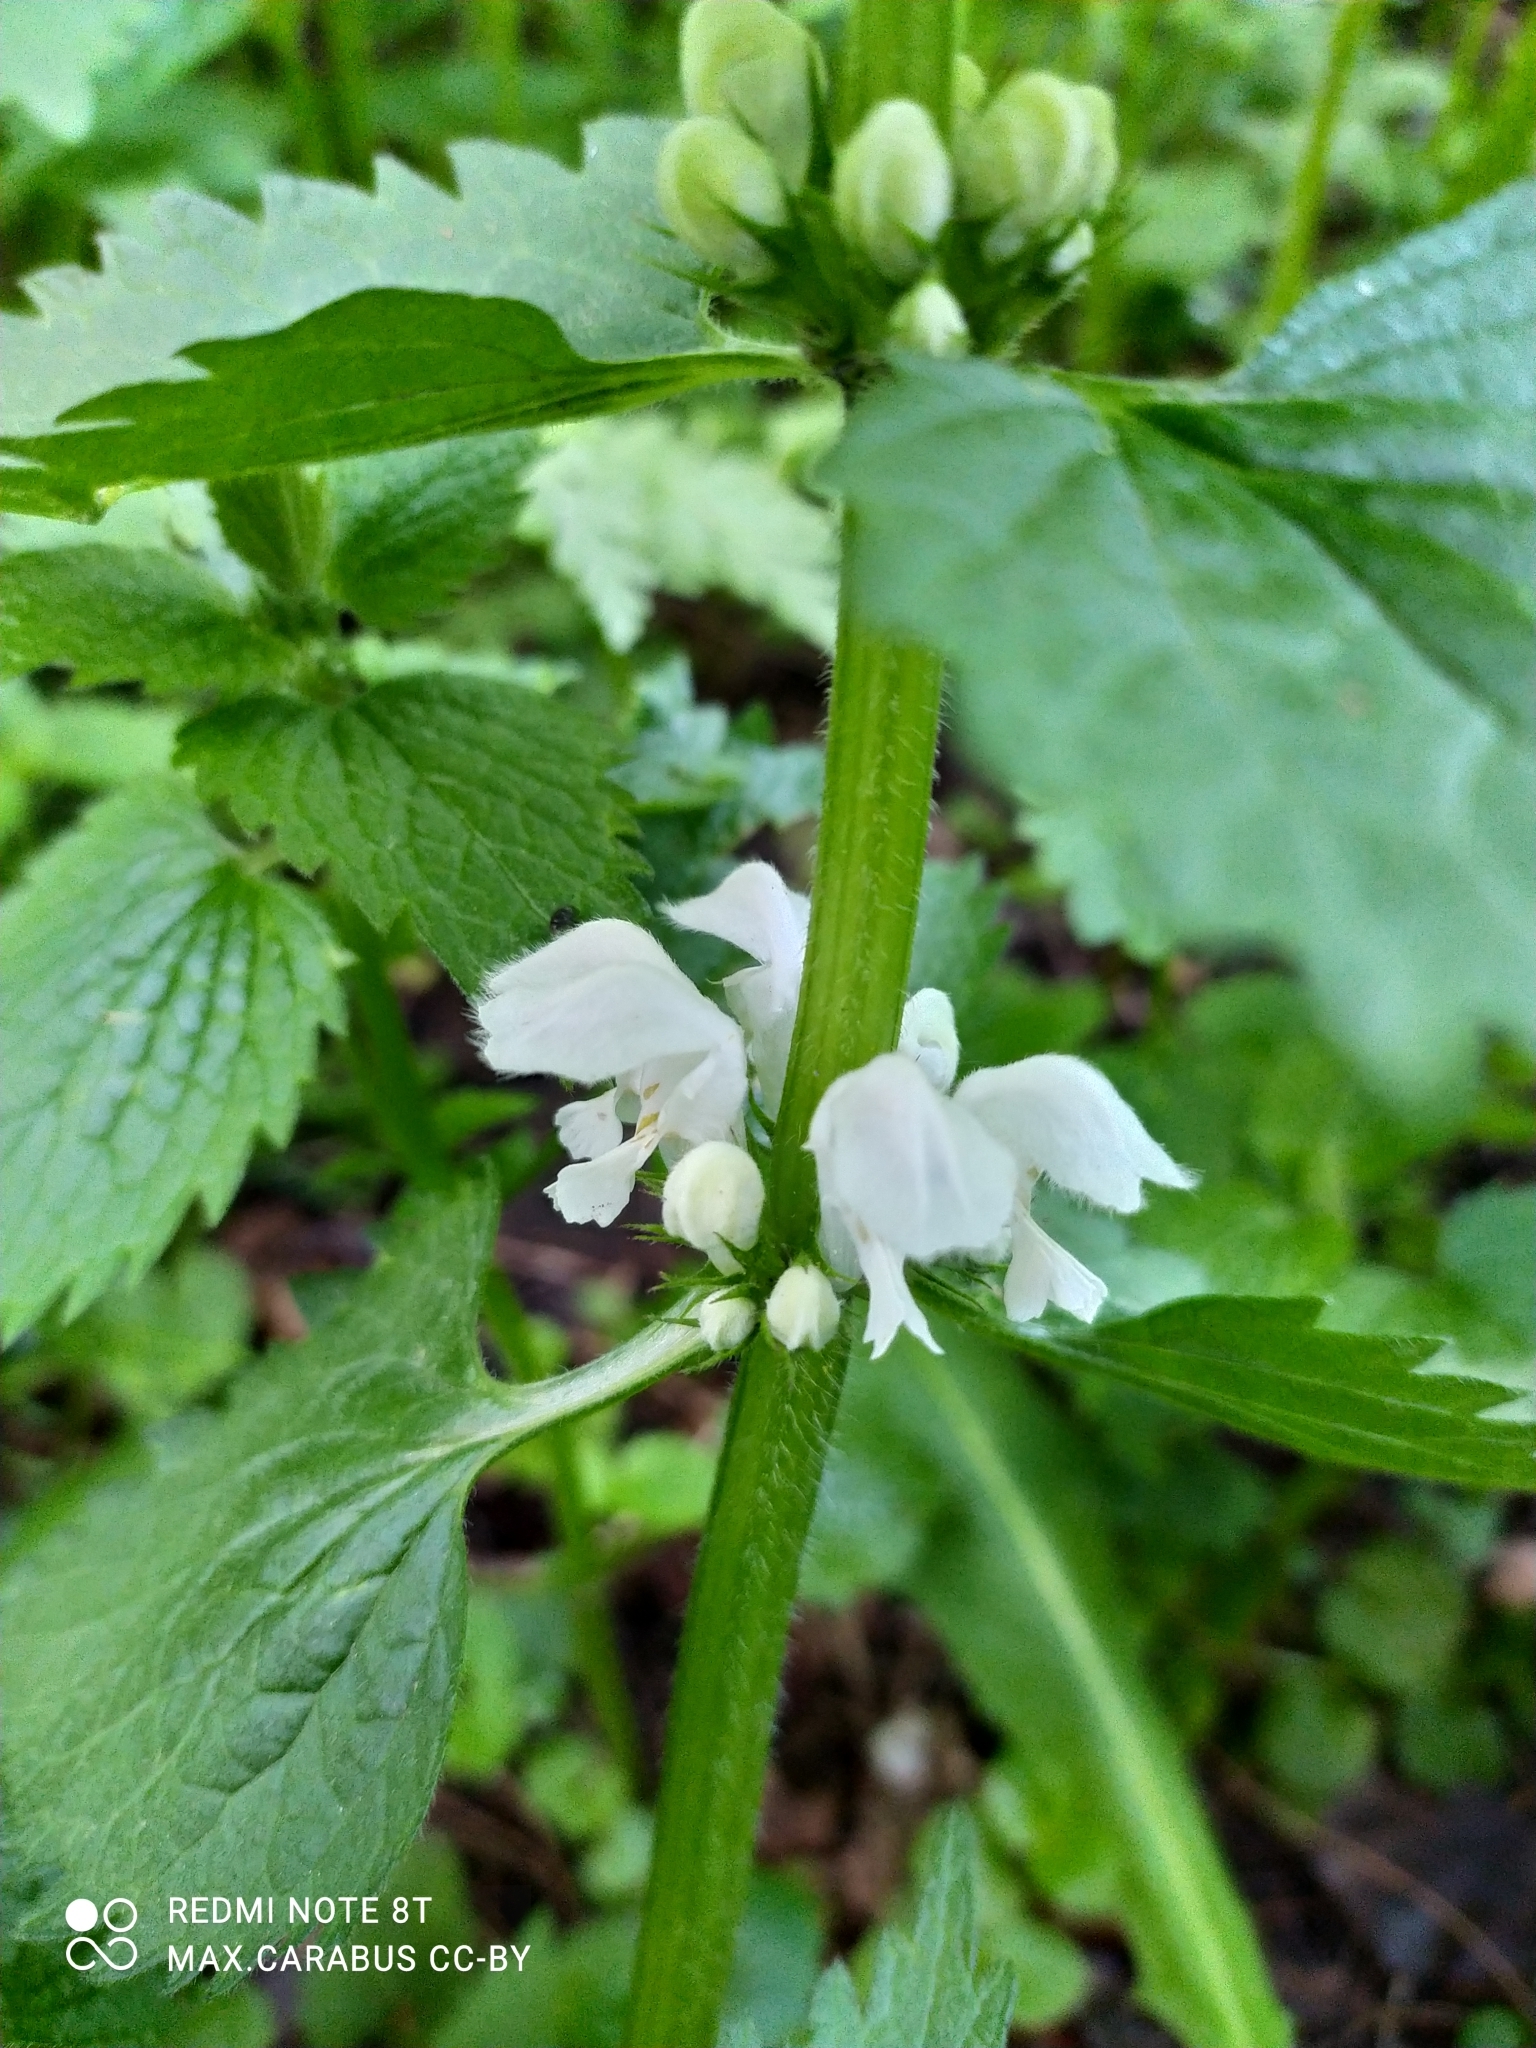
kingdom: Plantae
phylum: Tracheophyta
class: Magnoliopsida
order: Lamiales
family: Lamiaceae
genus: Lamium
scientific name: Lamium album
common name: White dead-nettle
